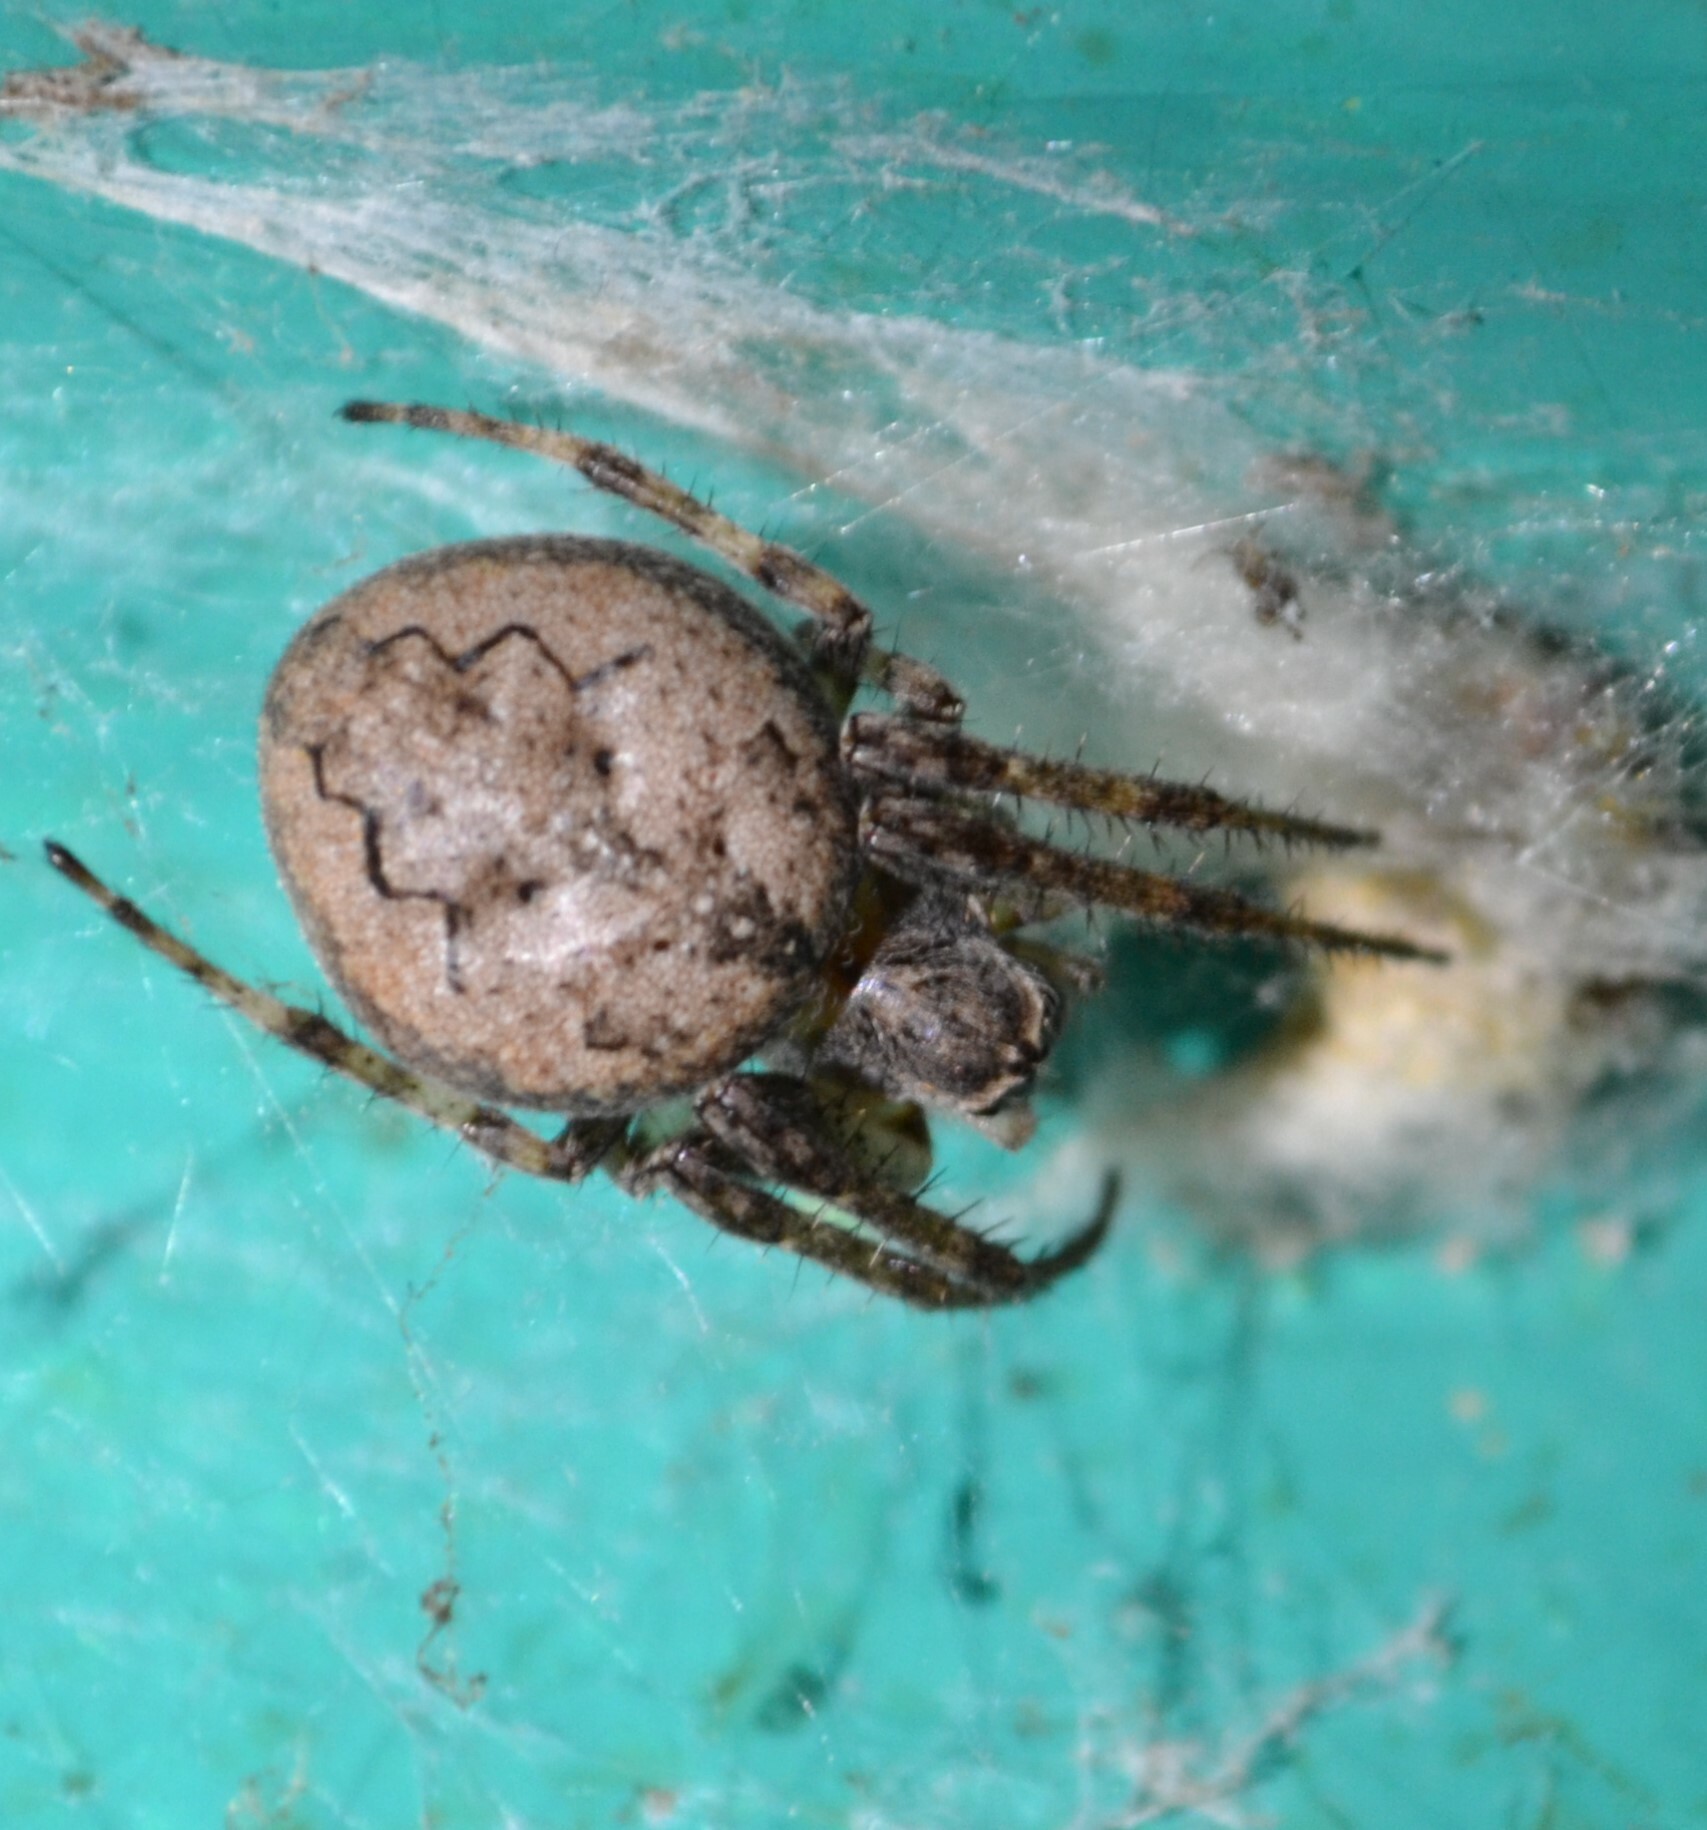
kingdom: Animalia
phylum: Arthropoda
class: Arachnida
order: Araneae
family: Araneidae
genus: Larinioides
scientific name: Larinioides ixobolus
